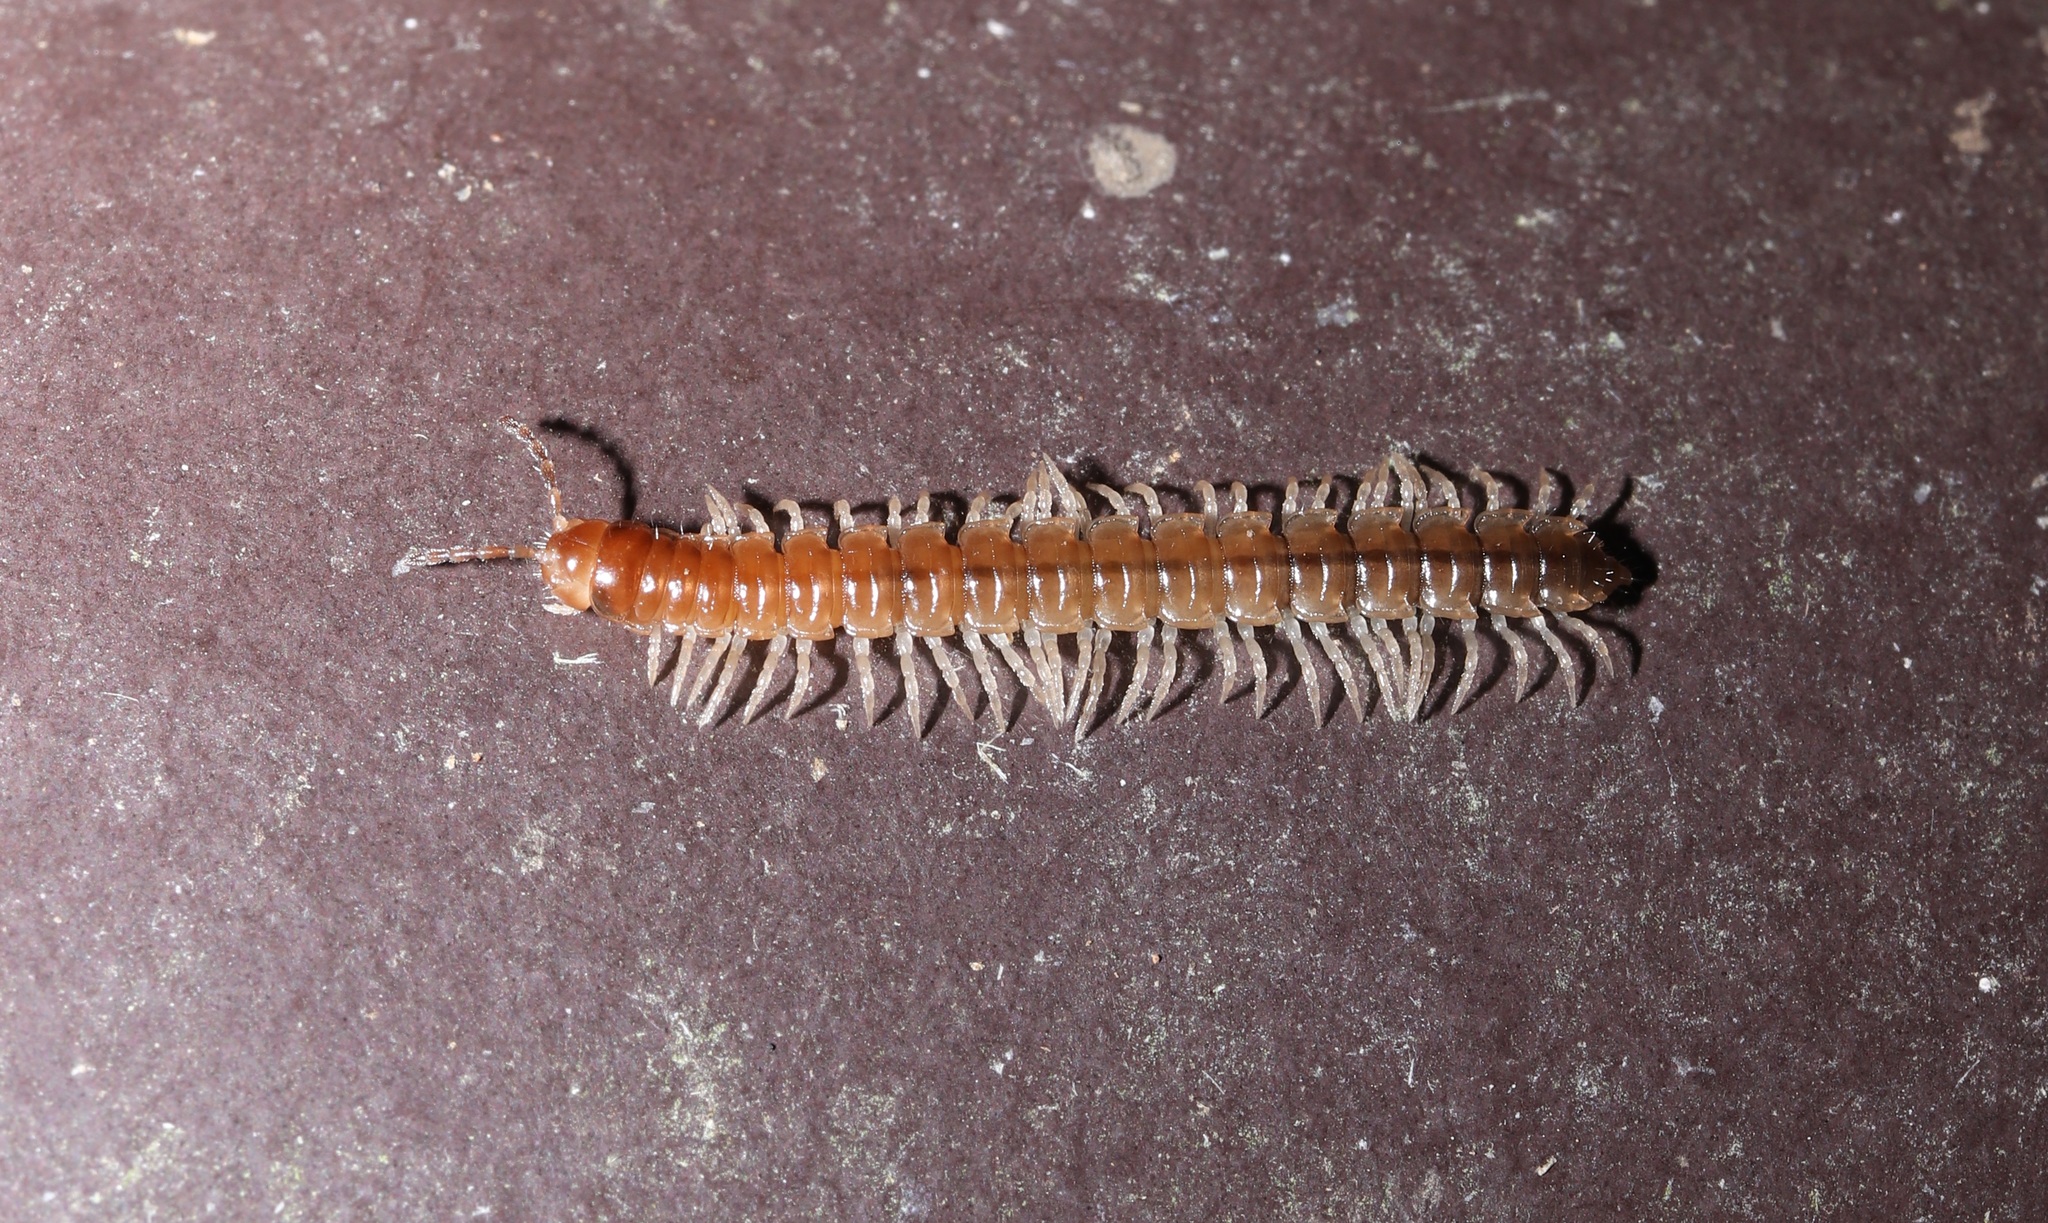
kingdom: Animalia
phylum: Arthropoda
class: Diplopoda
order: Polydesmida
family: Paradoxosomatidae
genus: Oxidus
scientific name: Oxidus gracilis
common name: Greenhouse millipede
